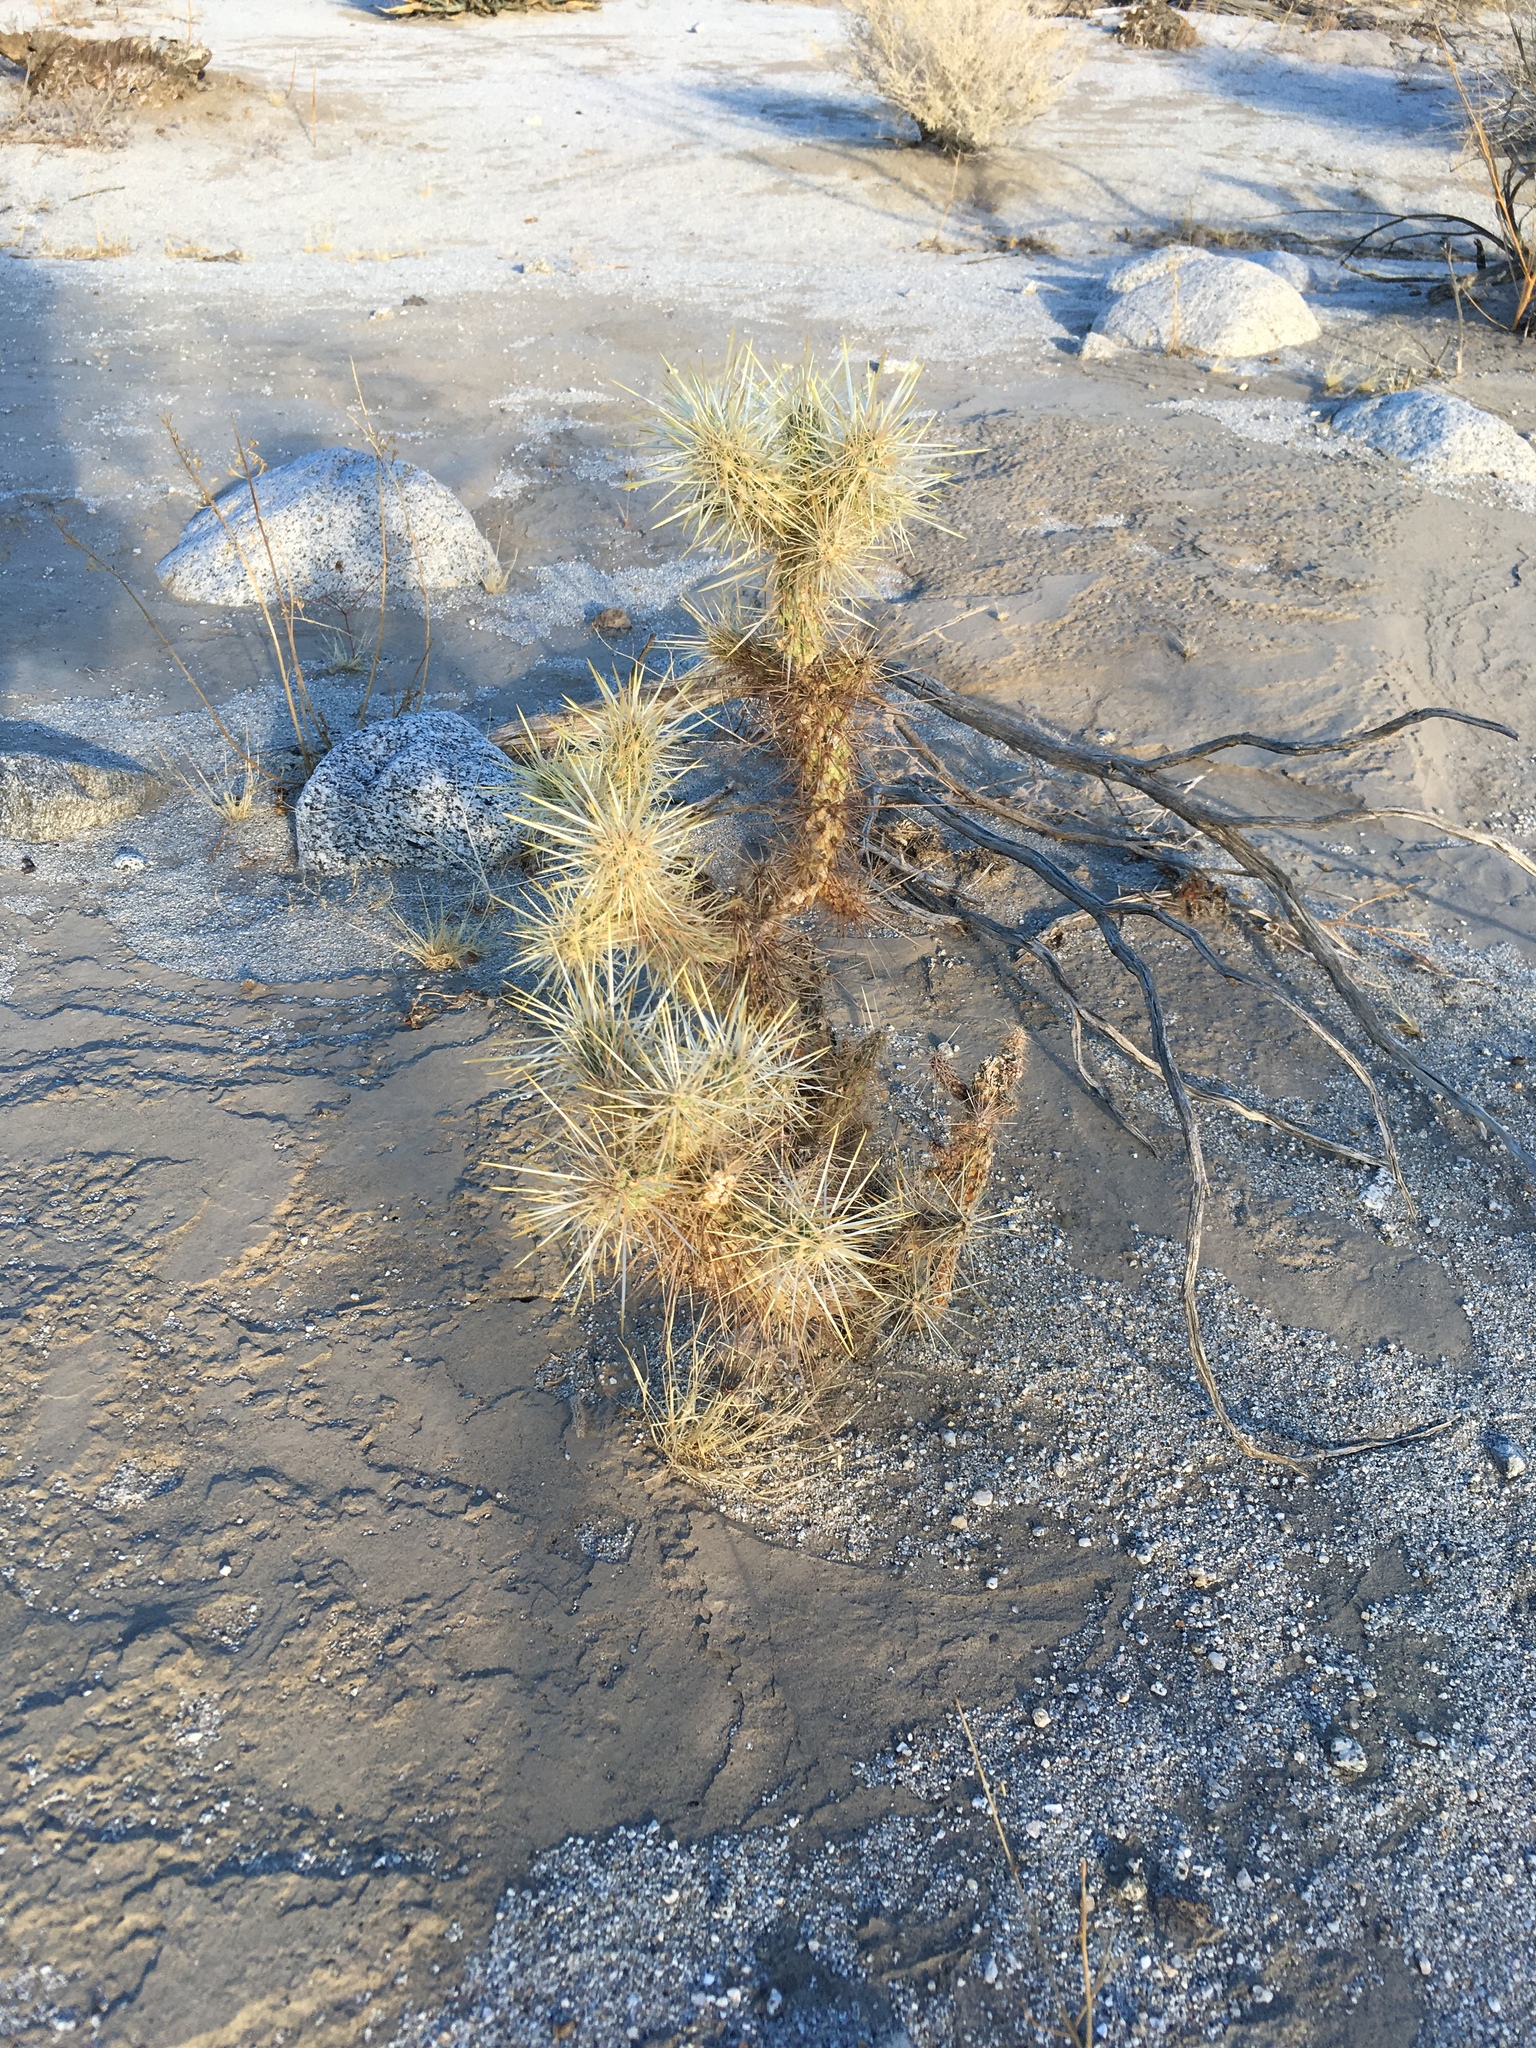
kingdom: Plantae
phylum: Tracheophyta
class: Magnoliopsida
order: Caryophyllales
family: Cactaceae
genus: Cylindropuntia
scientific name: Cylindropuntia echinocarpa
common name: Ground cholla
